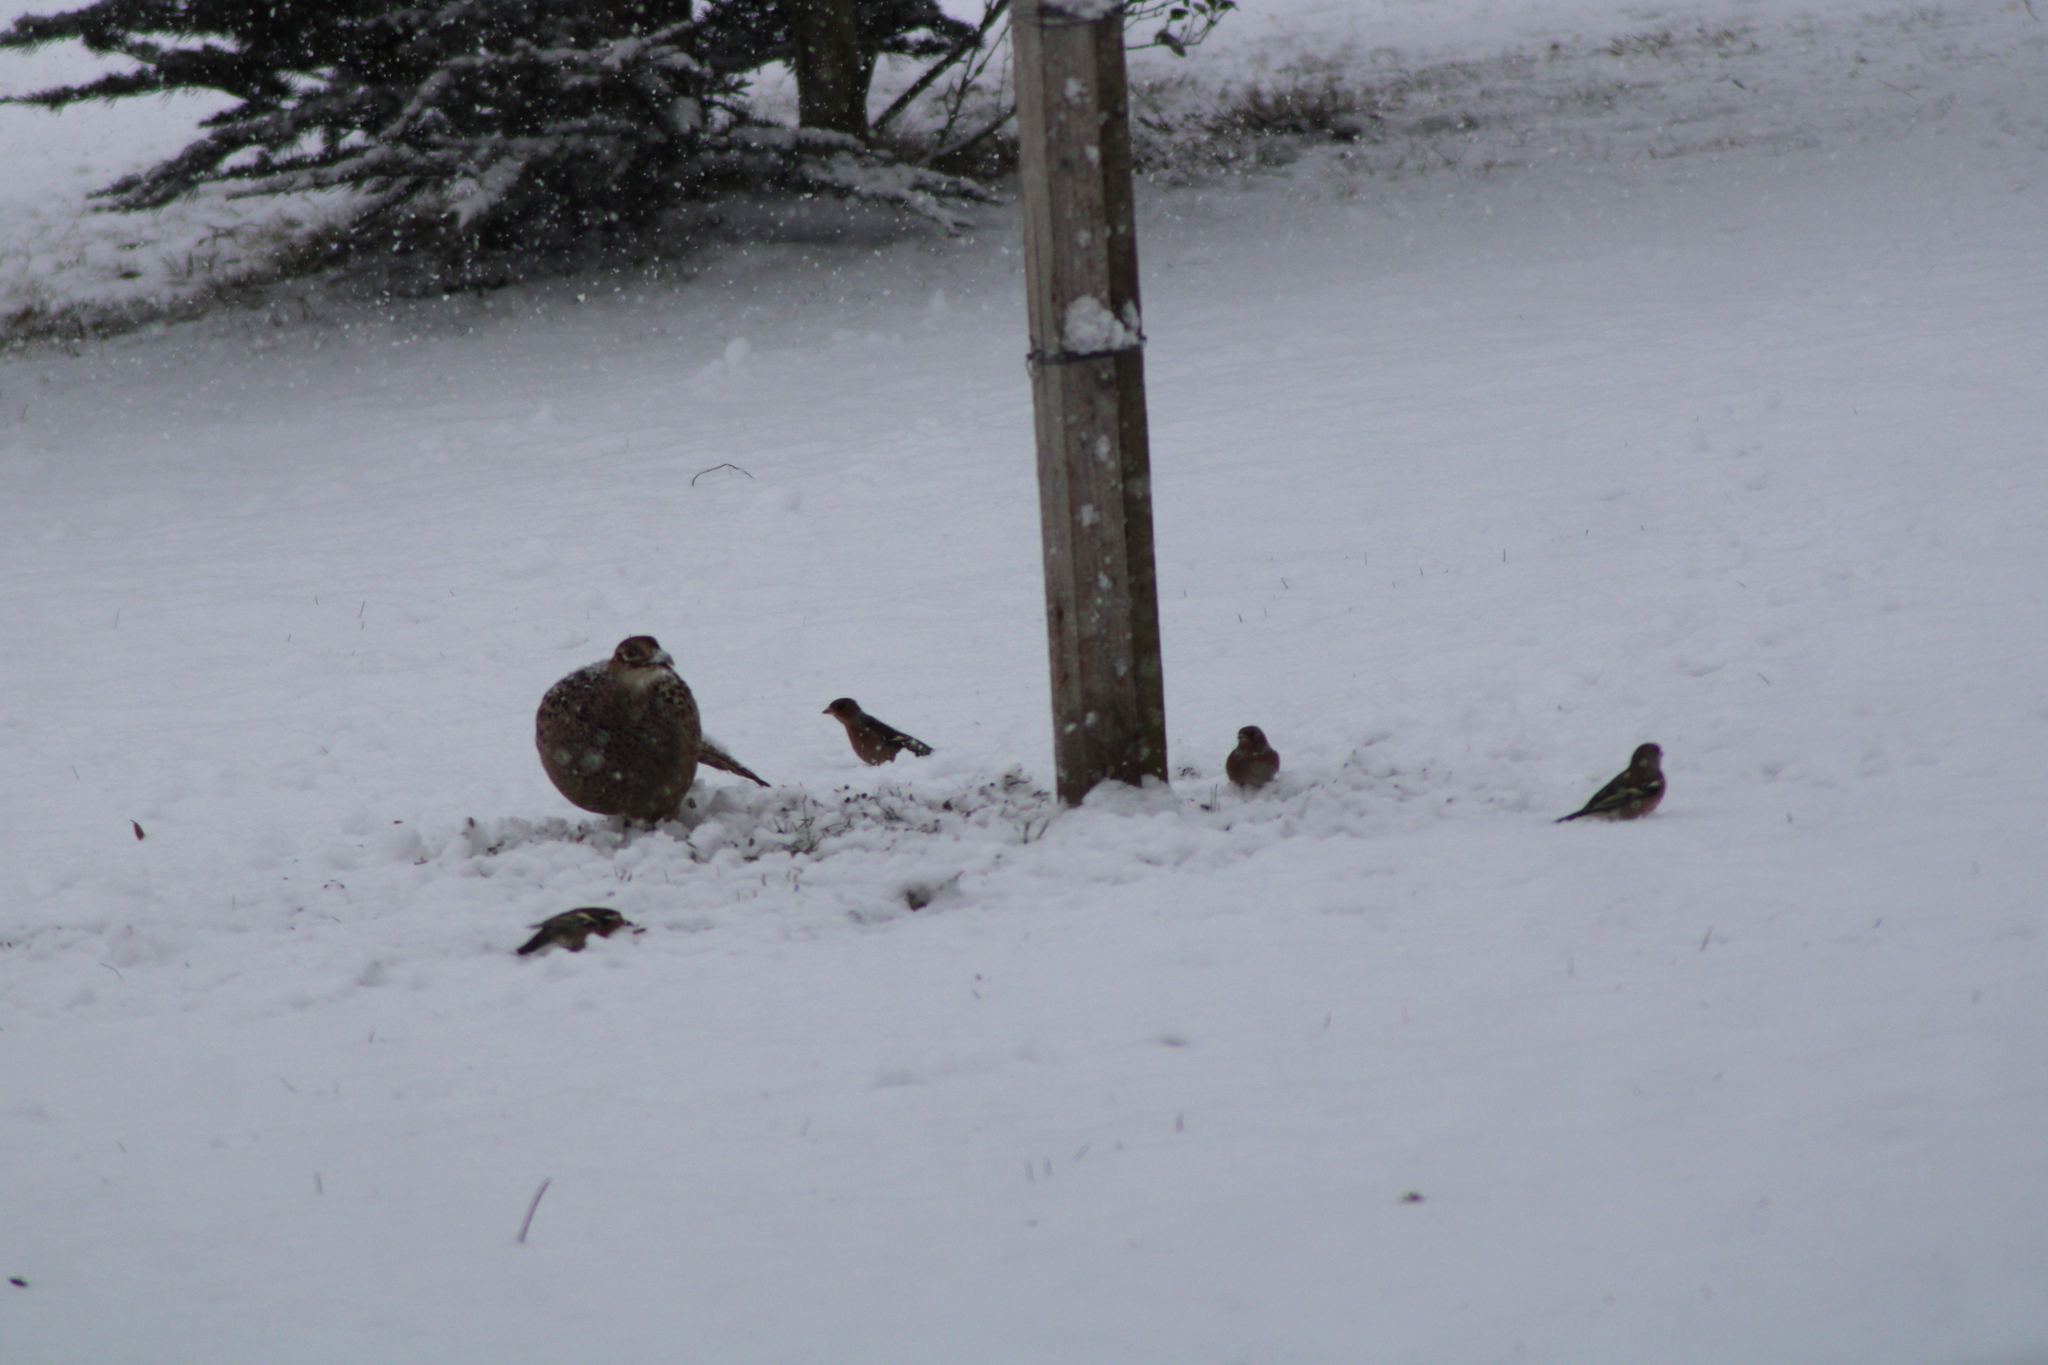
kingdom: Animalia
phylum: Chordata
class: Aves
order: Galliformes
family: Phasianidae
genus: Phasianus
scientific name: Phasianus colchicus
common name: Common pheasant
